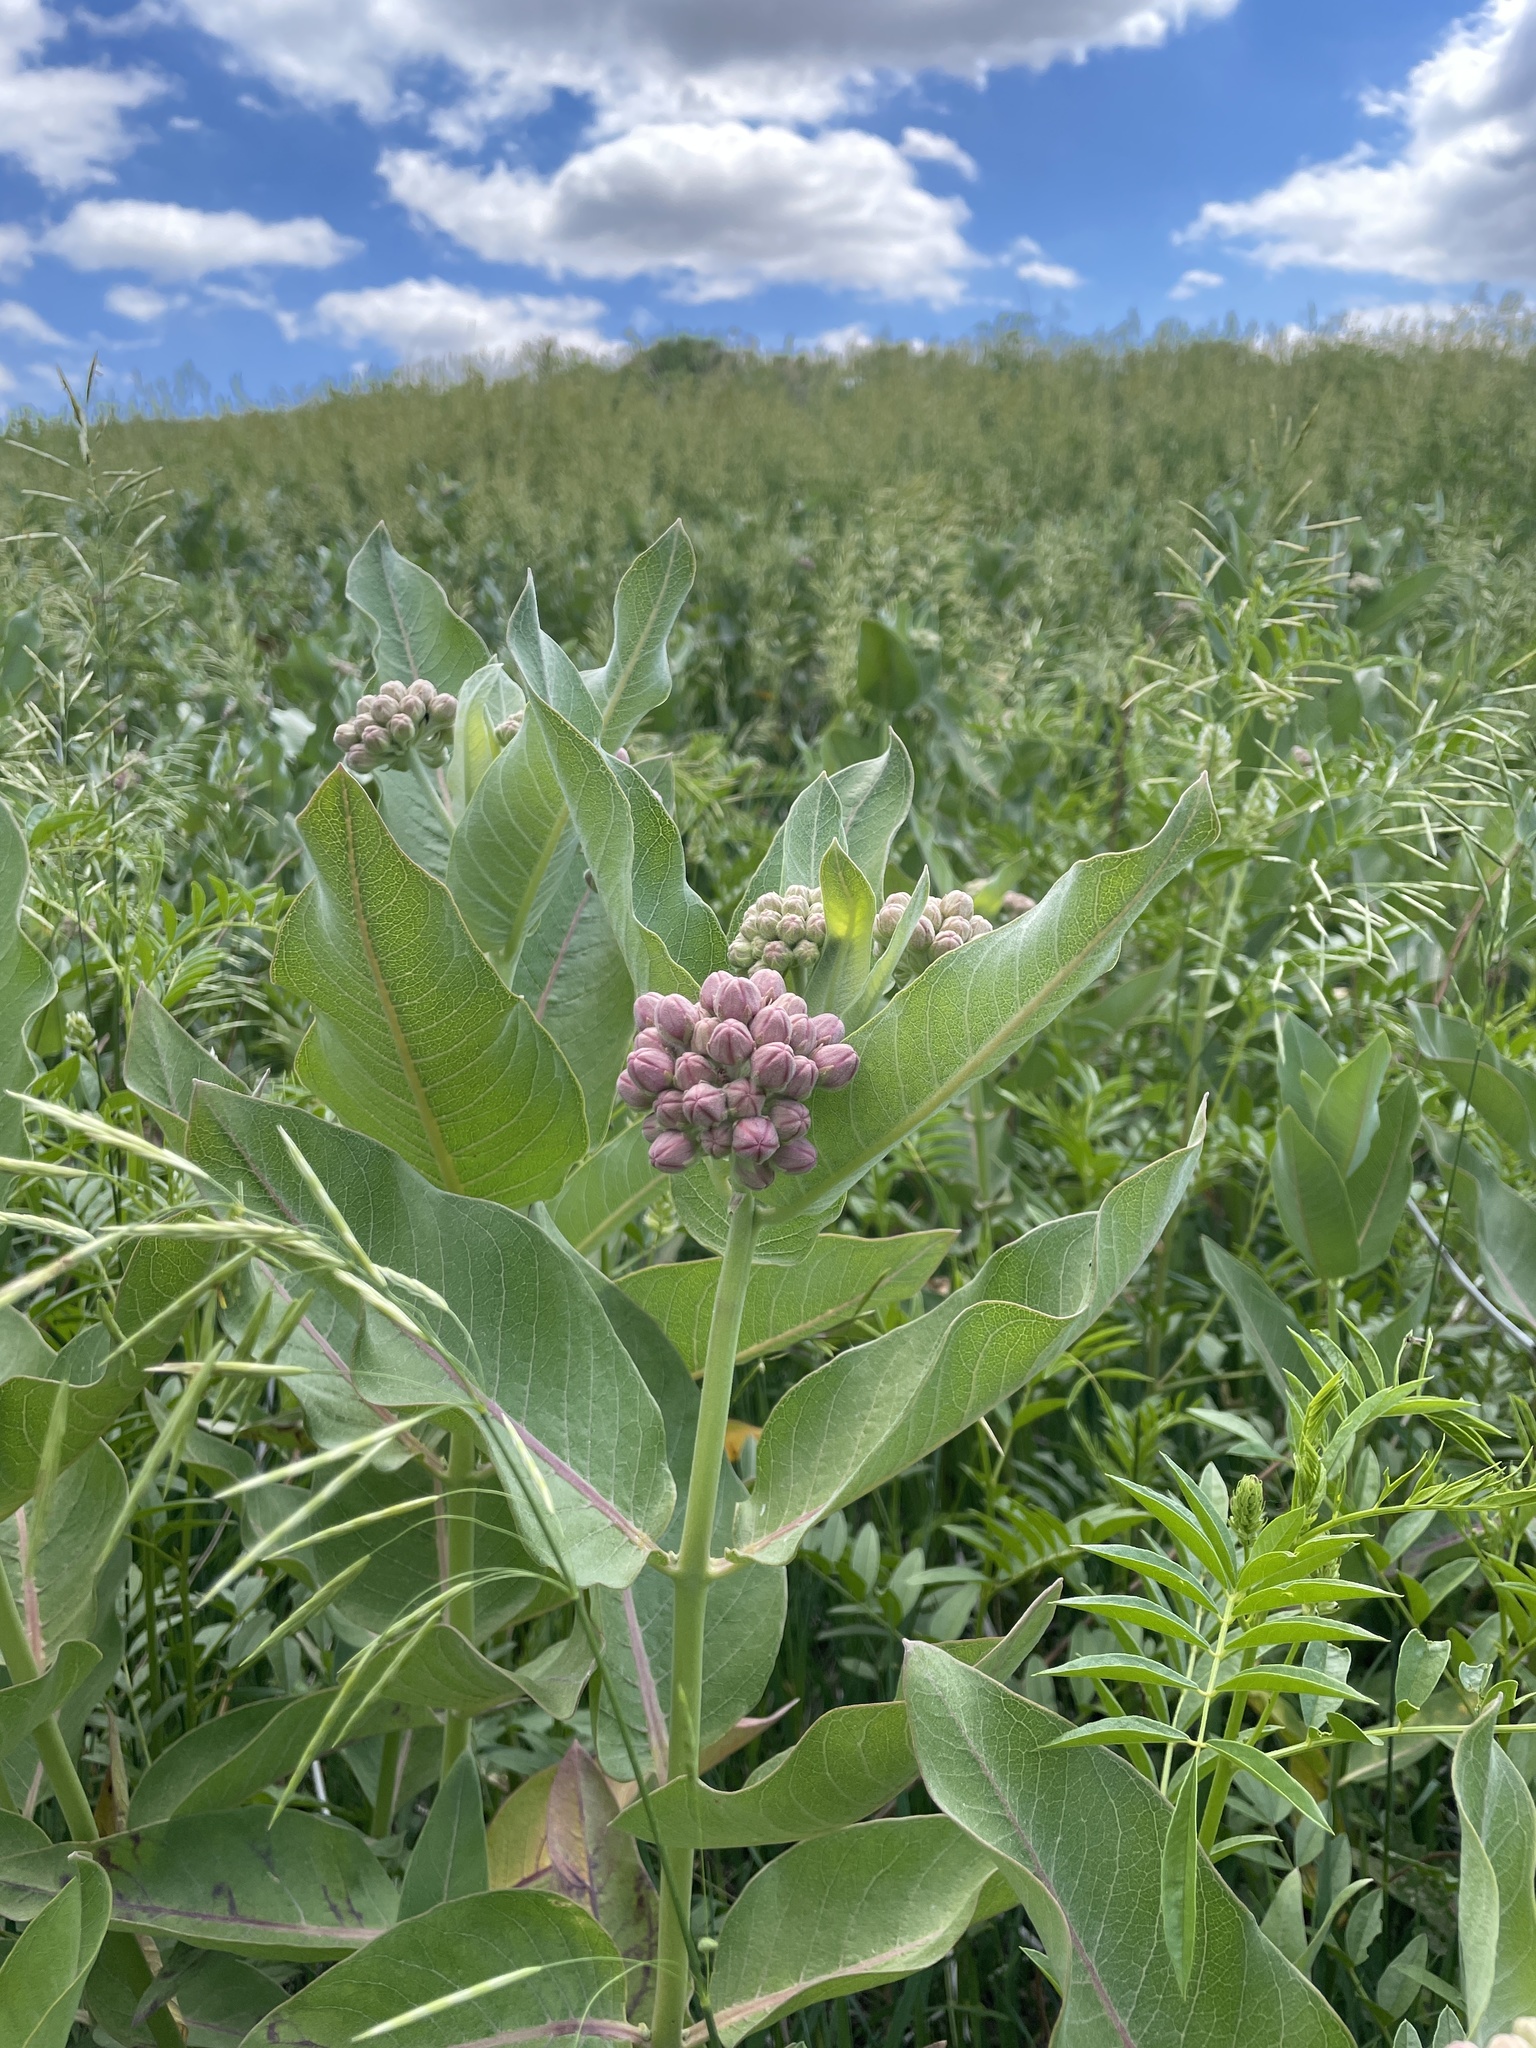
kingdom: Plantae
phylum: Tracheophyta
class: Magnoliopsida
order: Gentianales
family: Apocynaceae
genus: Asclepias
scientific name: Asclepias speciosa
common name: Showy milkweed
